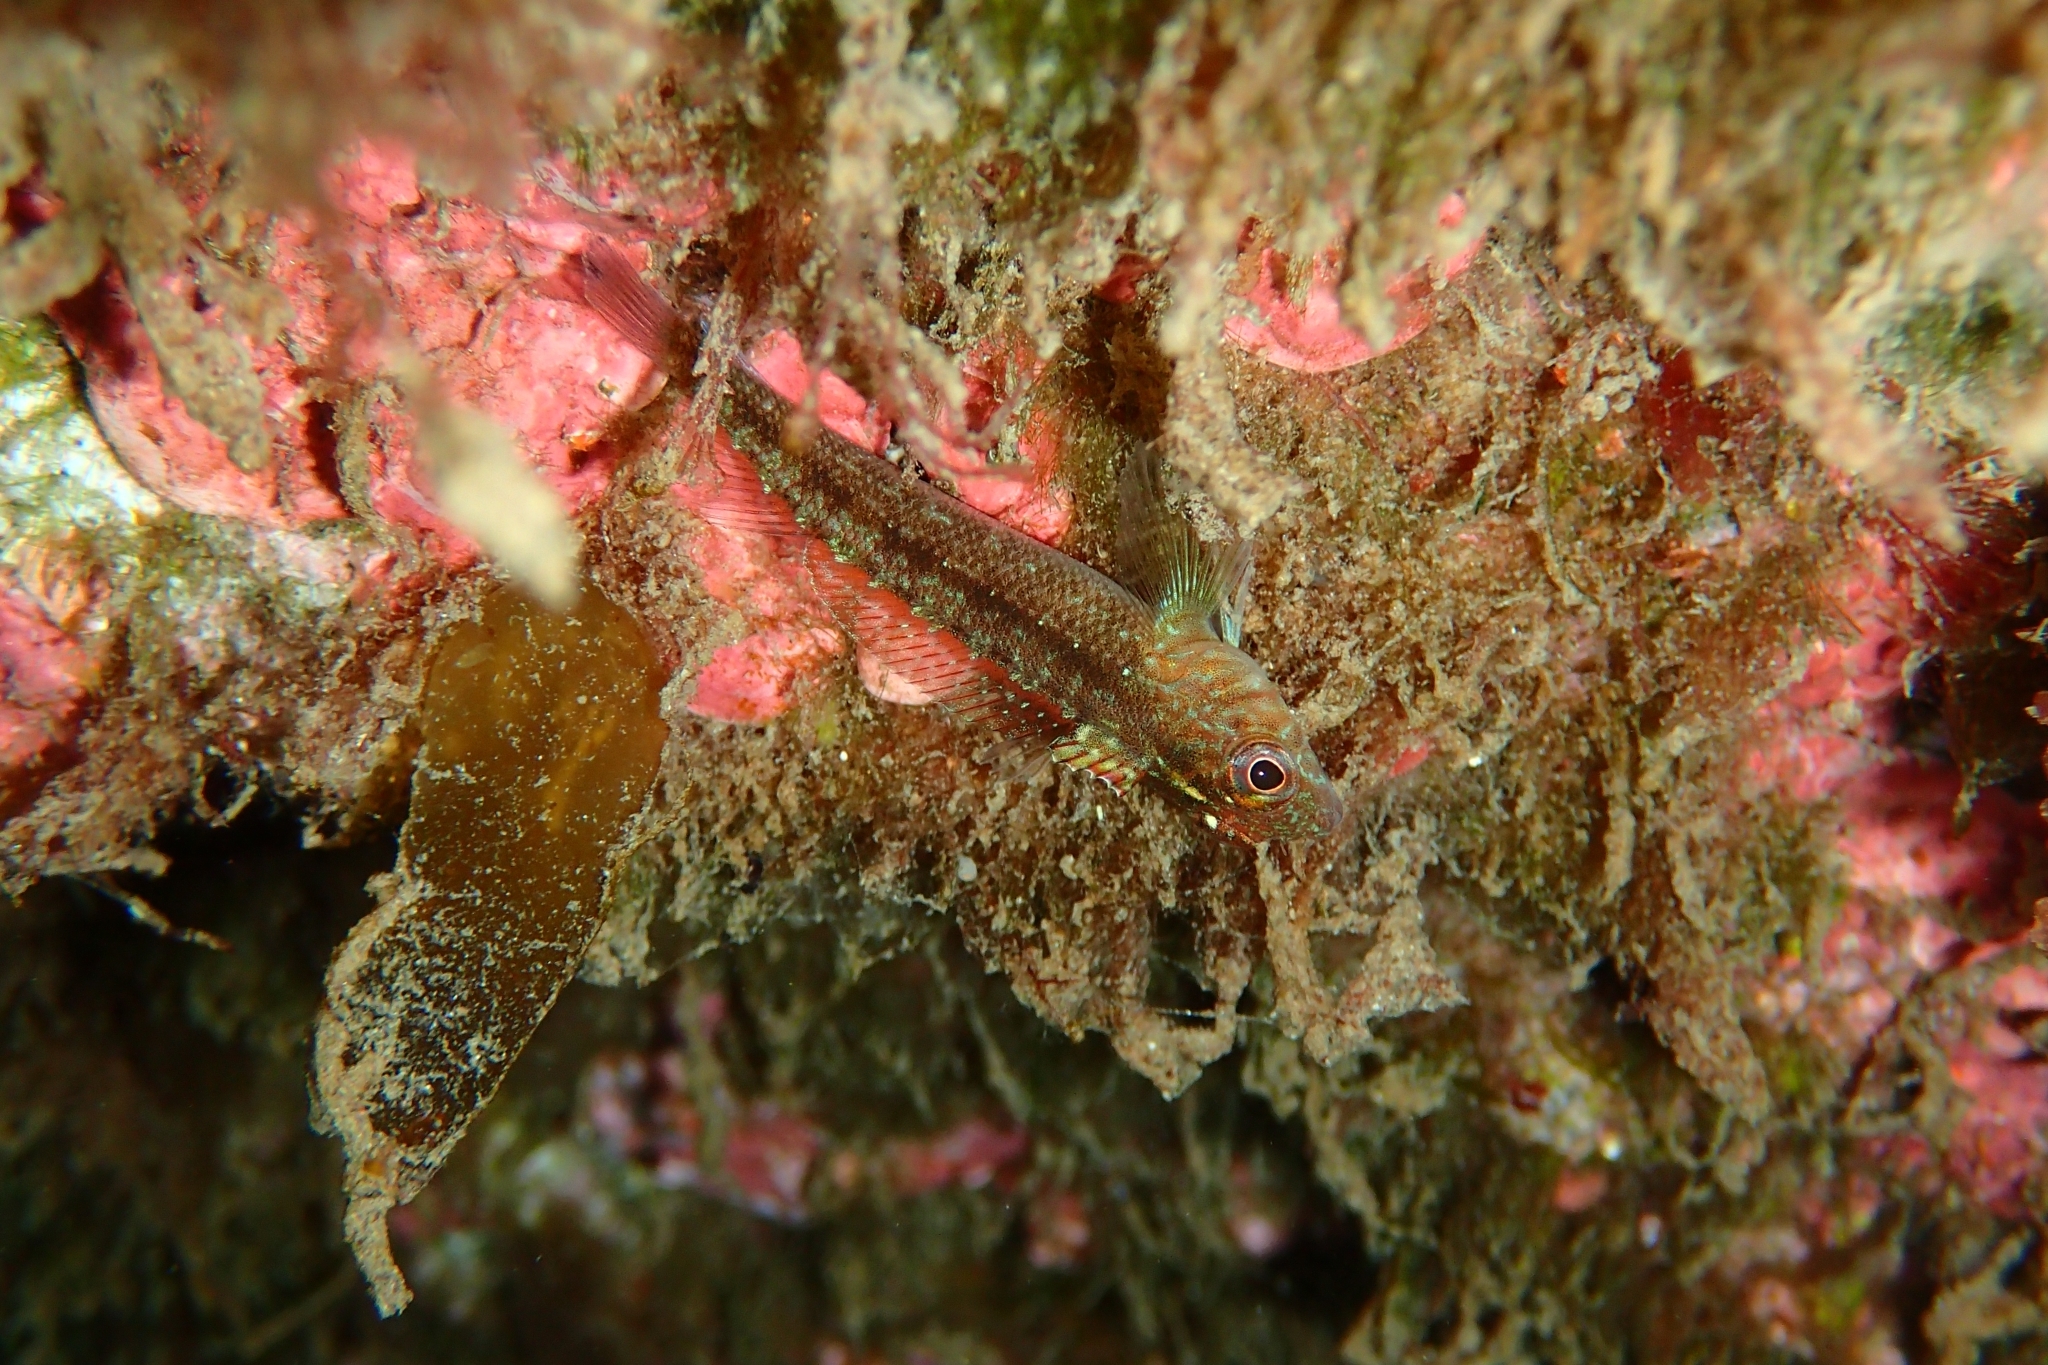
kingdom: Animalia
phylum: Chordata
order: Perciformes
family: Tripterygiidae
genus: Forsterygion
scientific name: Forsterygion lapillum
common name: Common triplefin
